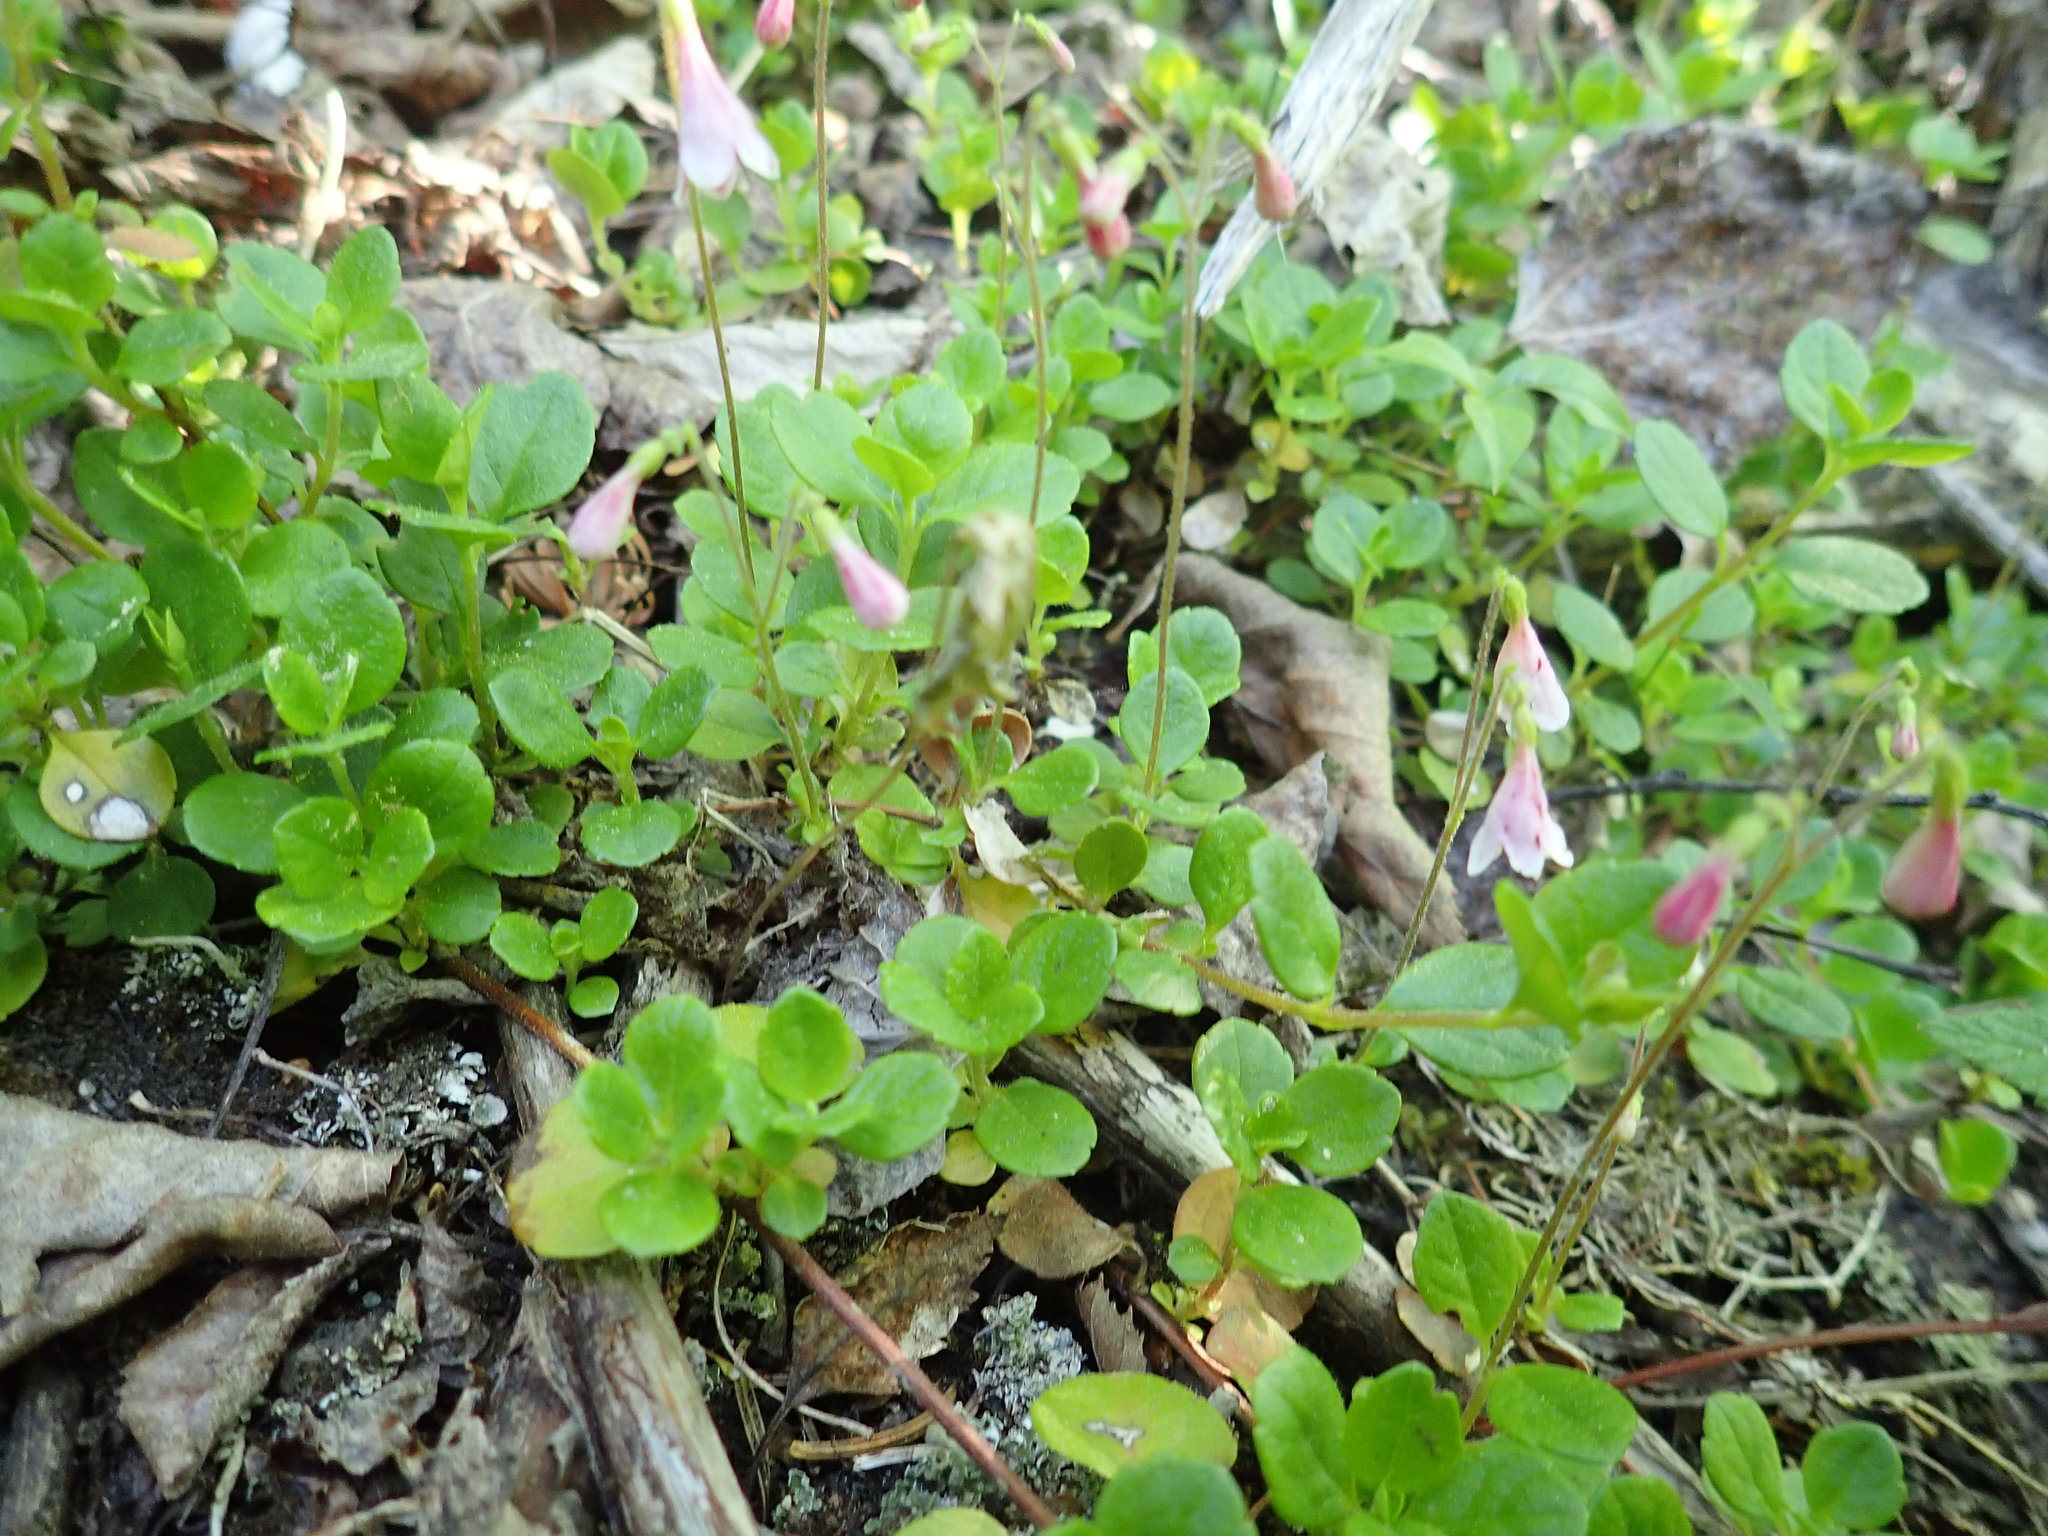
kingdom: Plantae
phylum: Tracheophyta
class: Magnoliopsida
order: Dipsacales
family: Caprifoliaceae
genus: Linnaea
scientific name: Linnaea borealis
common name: Twinflower
